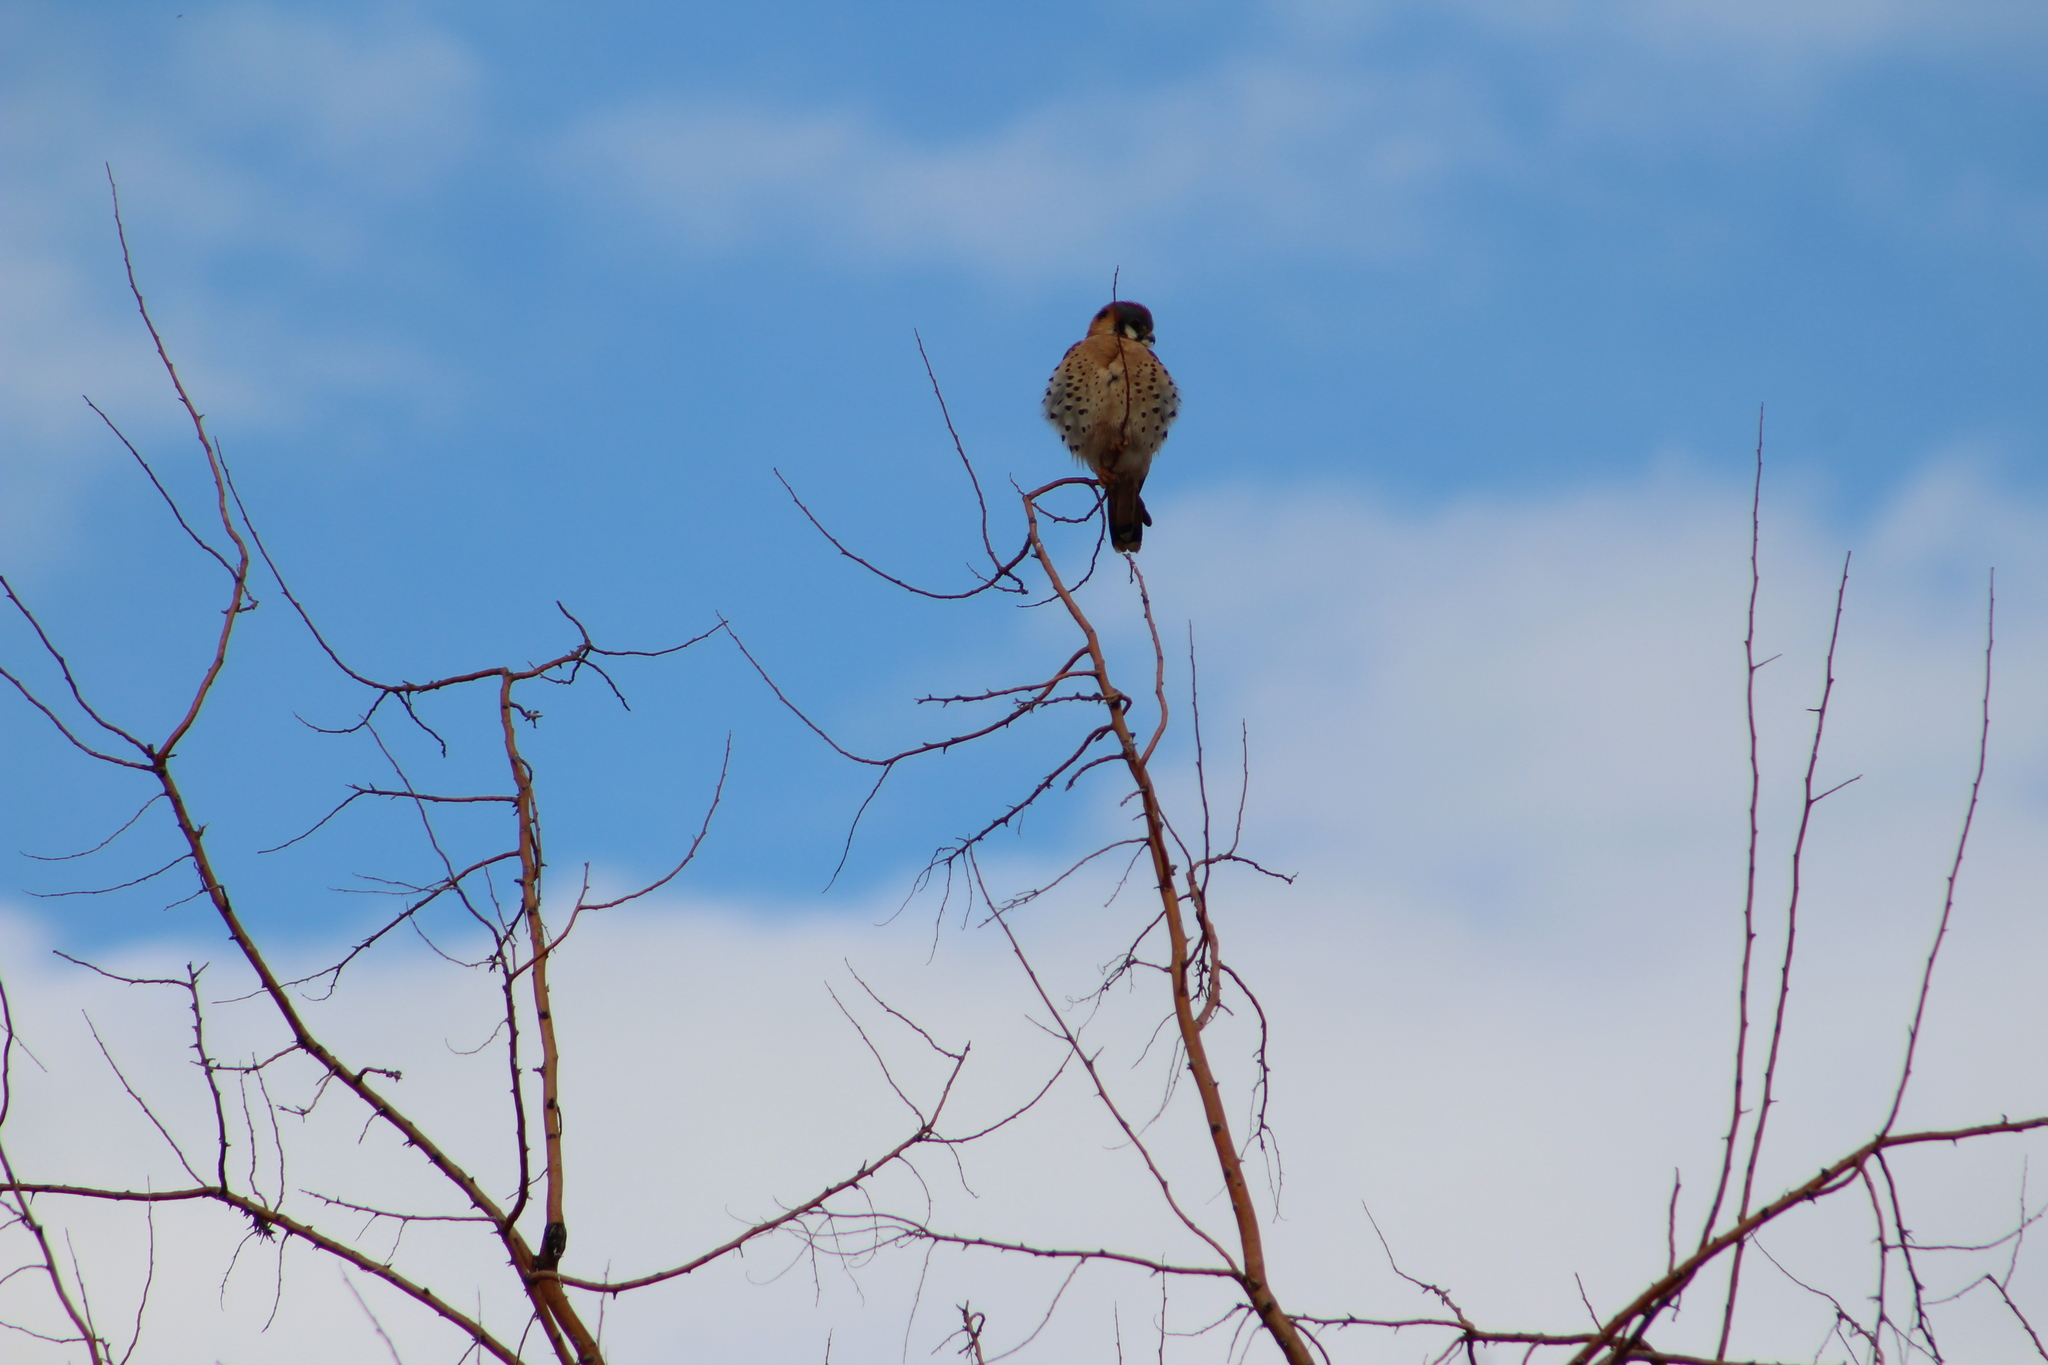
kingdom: Animalia
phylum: Chordata
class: Aves
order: Falconiformes
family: Falconidae
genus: Falco
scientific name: Falco sparverius
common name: American kestrel
